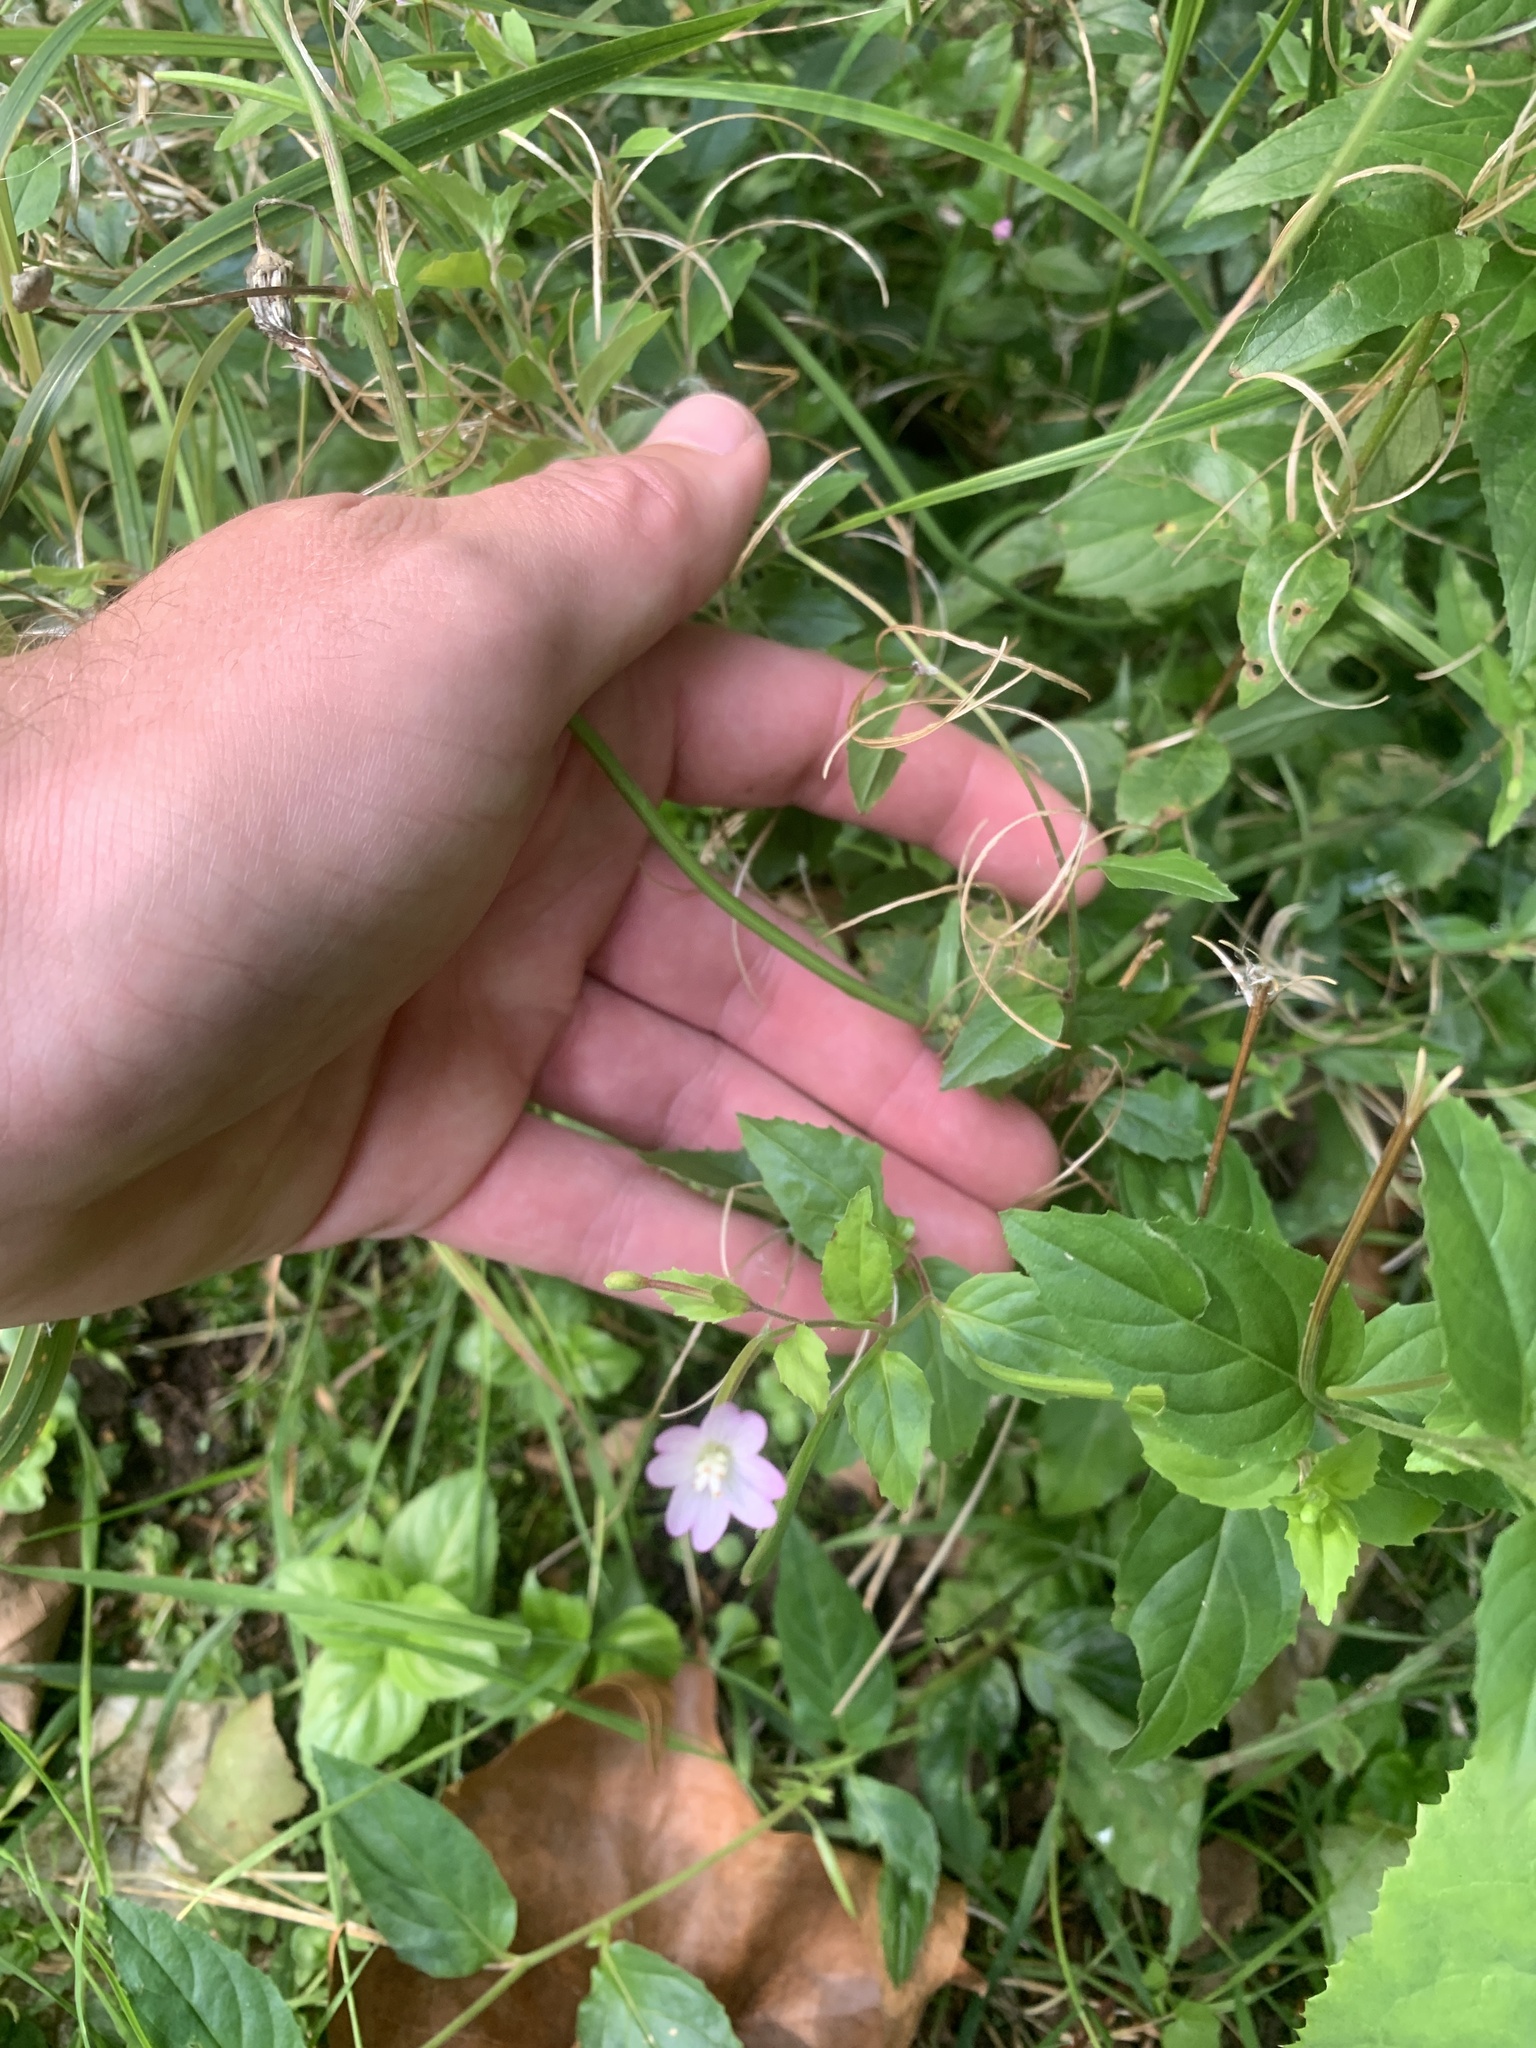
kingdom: Plantae
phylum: Tracheophyta
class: Magnoliopsida
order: Myrtales
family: Onagraceae
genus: Epilobium
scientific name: Epilobium ciliatum
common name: American willowherb
